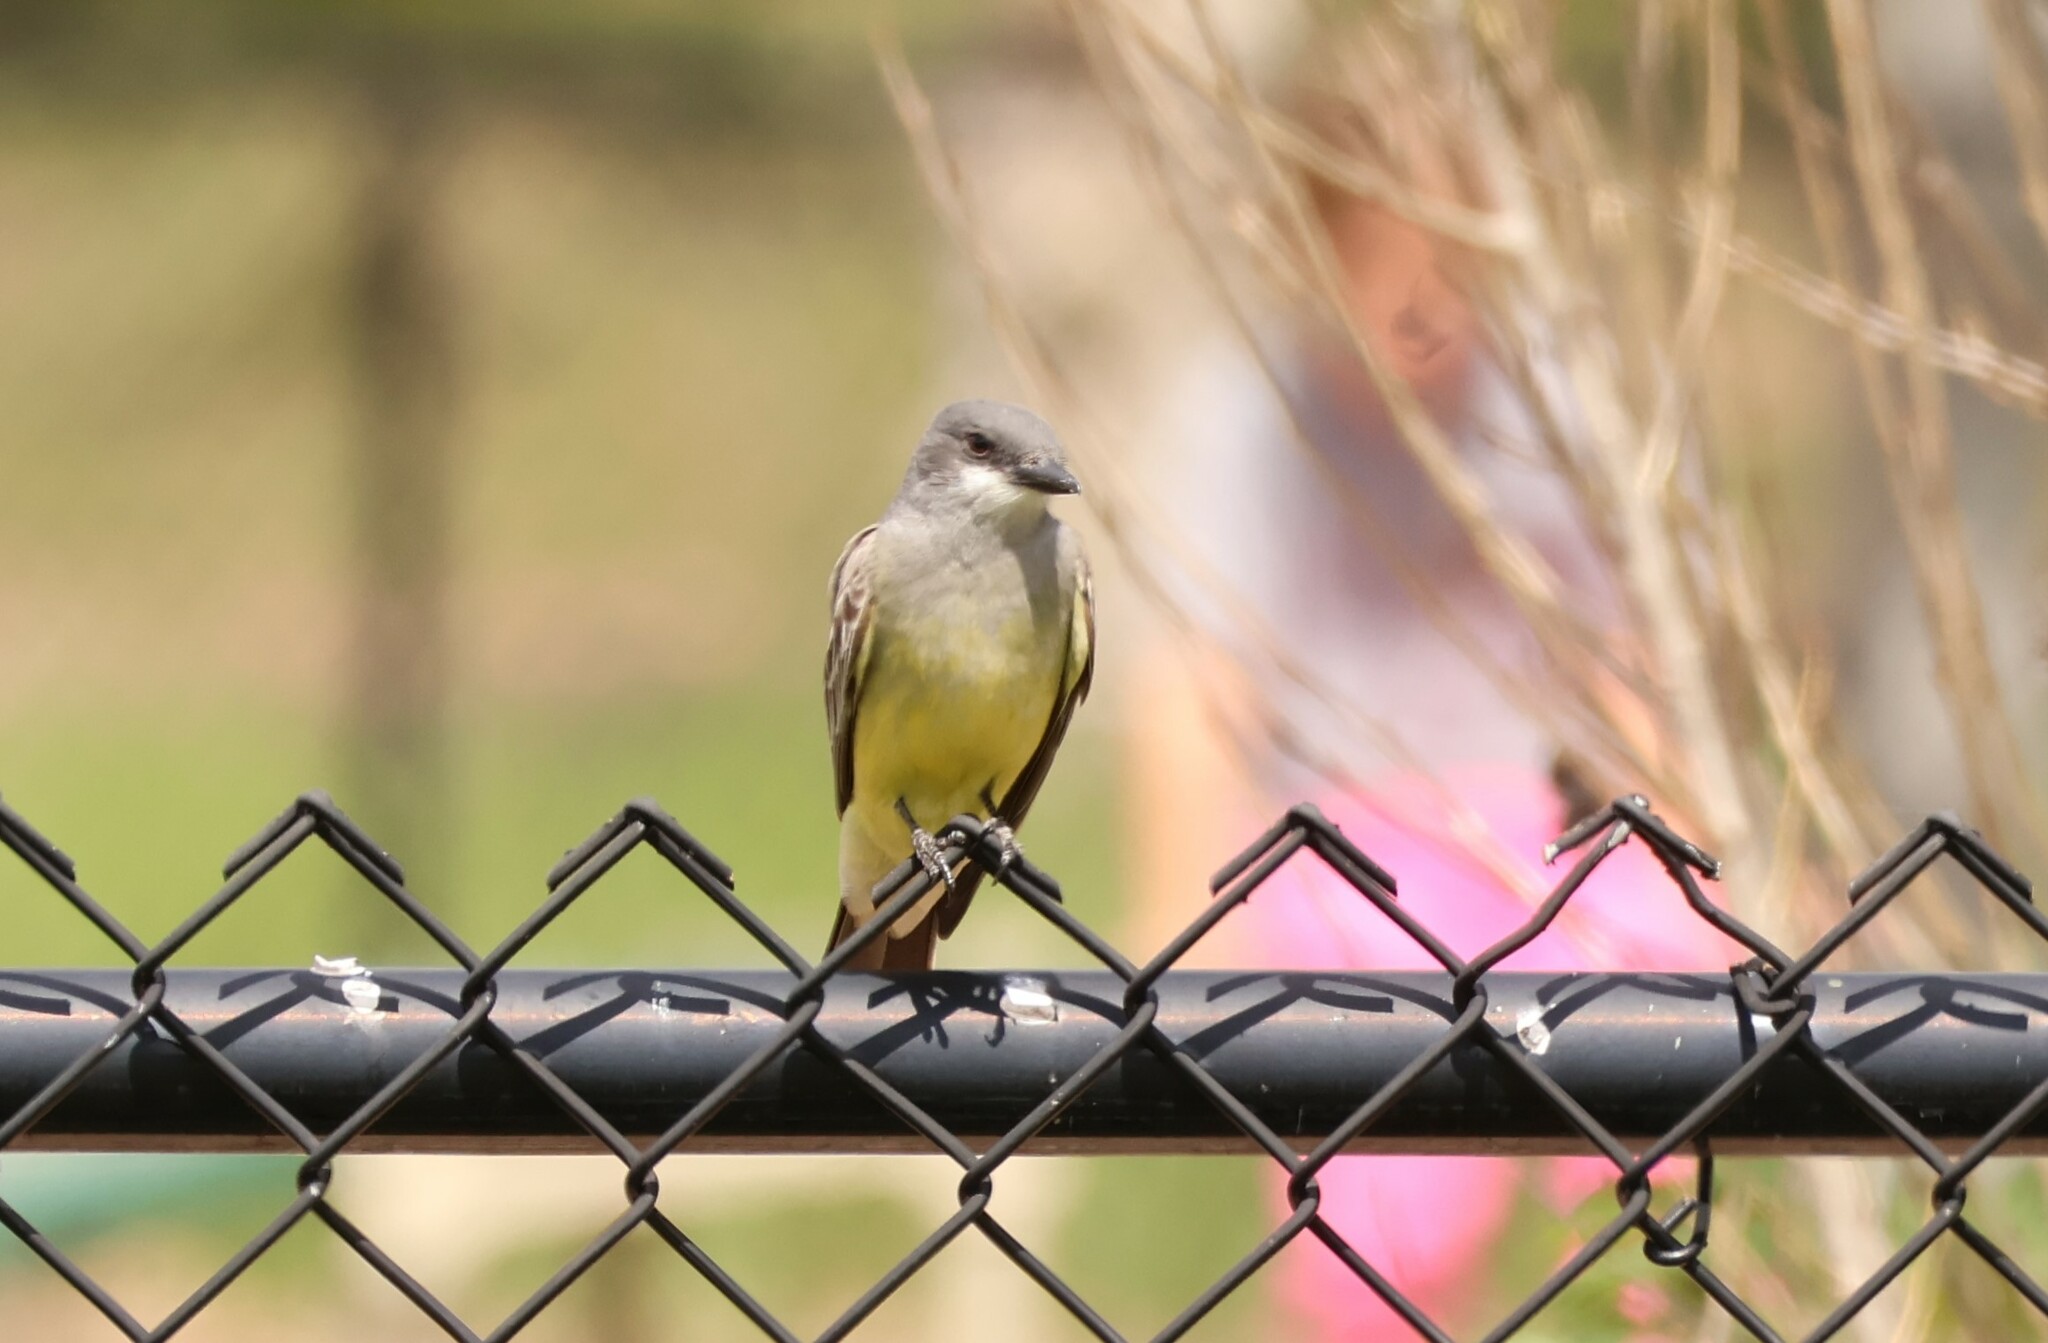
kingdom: Animalia
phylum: Chordata
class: Aves
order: Passeriformes
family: Tyrannidae
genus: Tyrannus
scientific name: Tyrannus vociferans
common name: Cassin's kingbird
